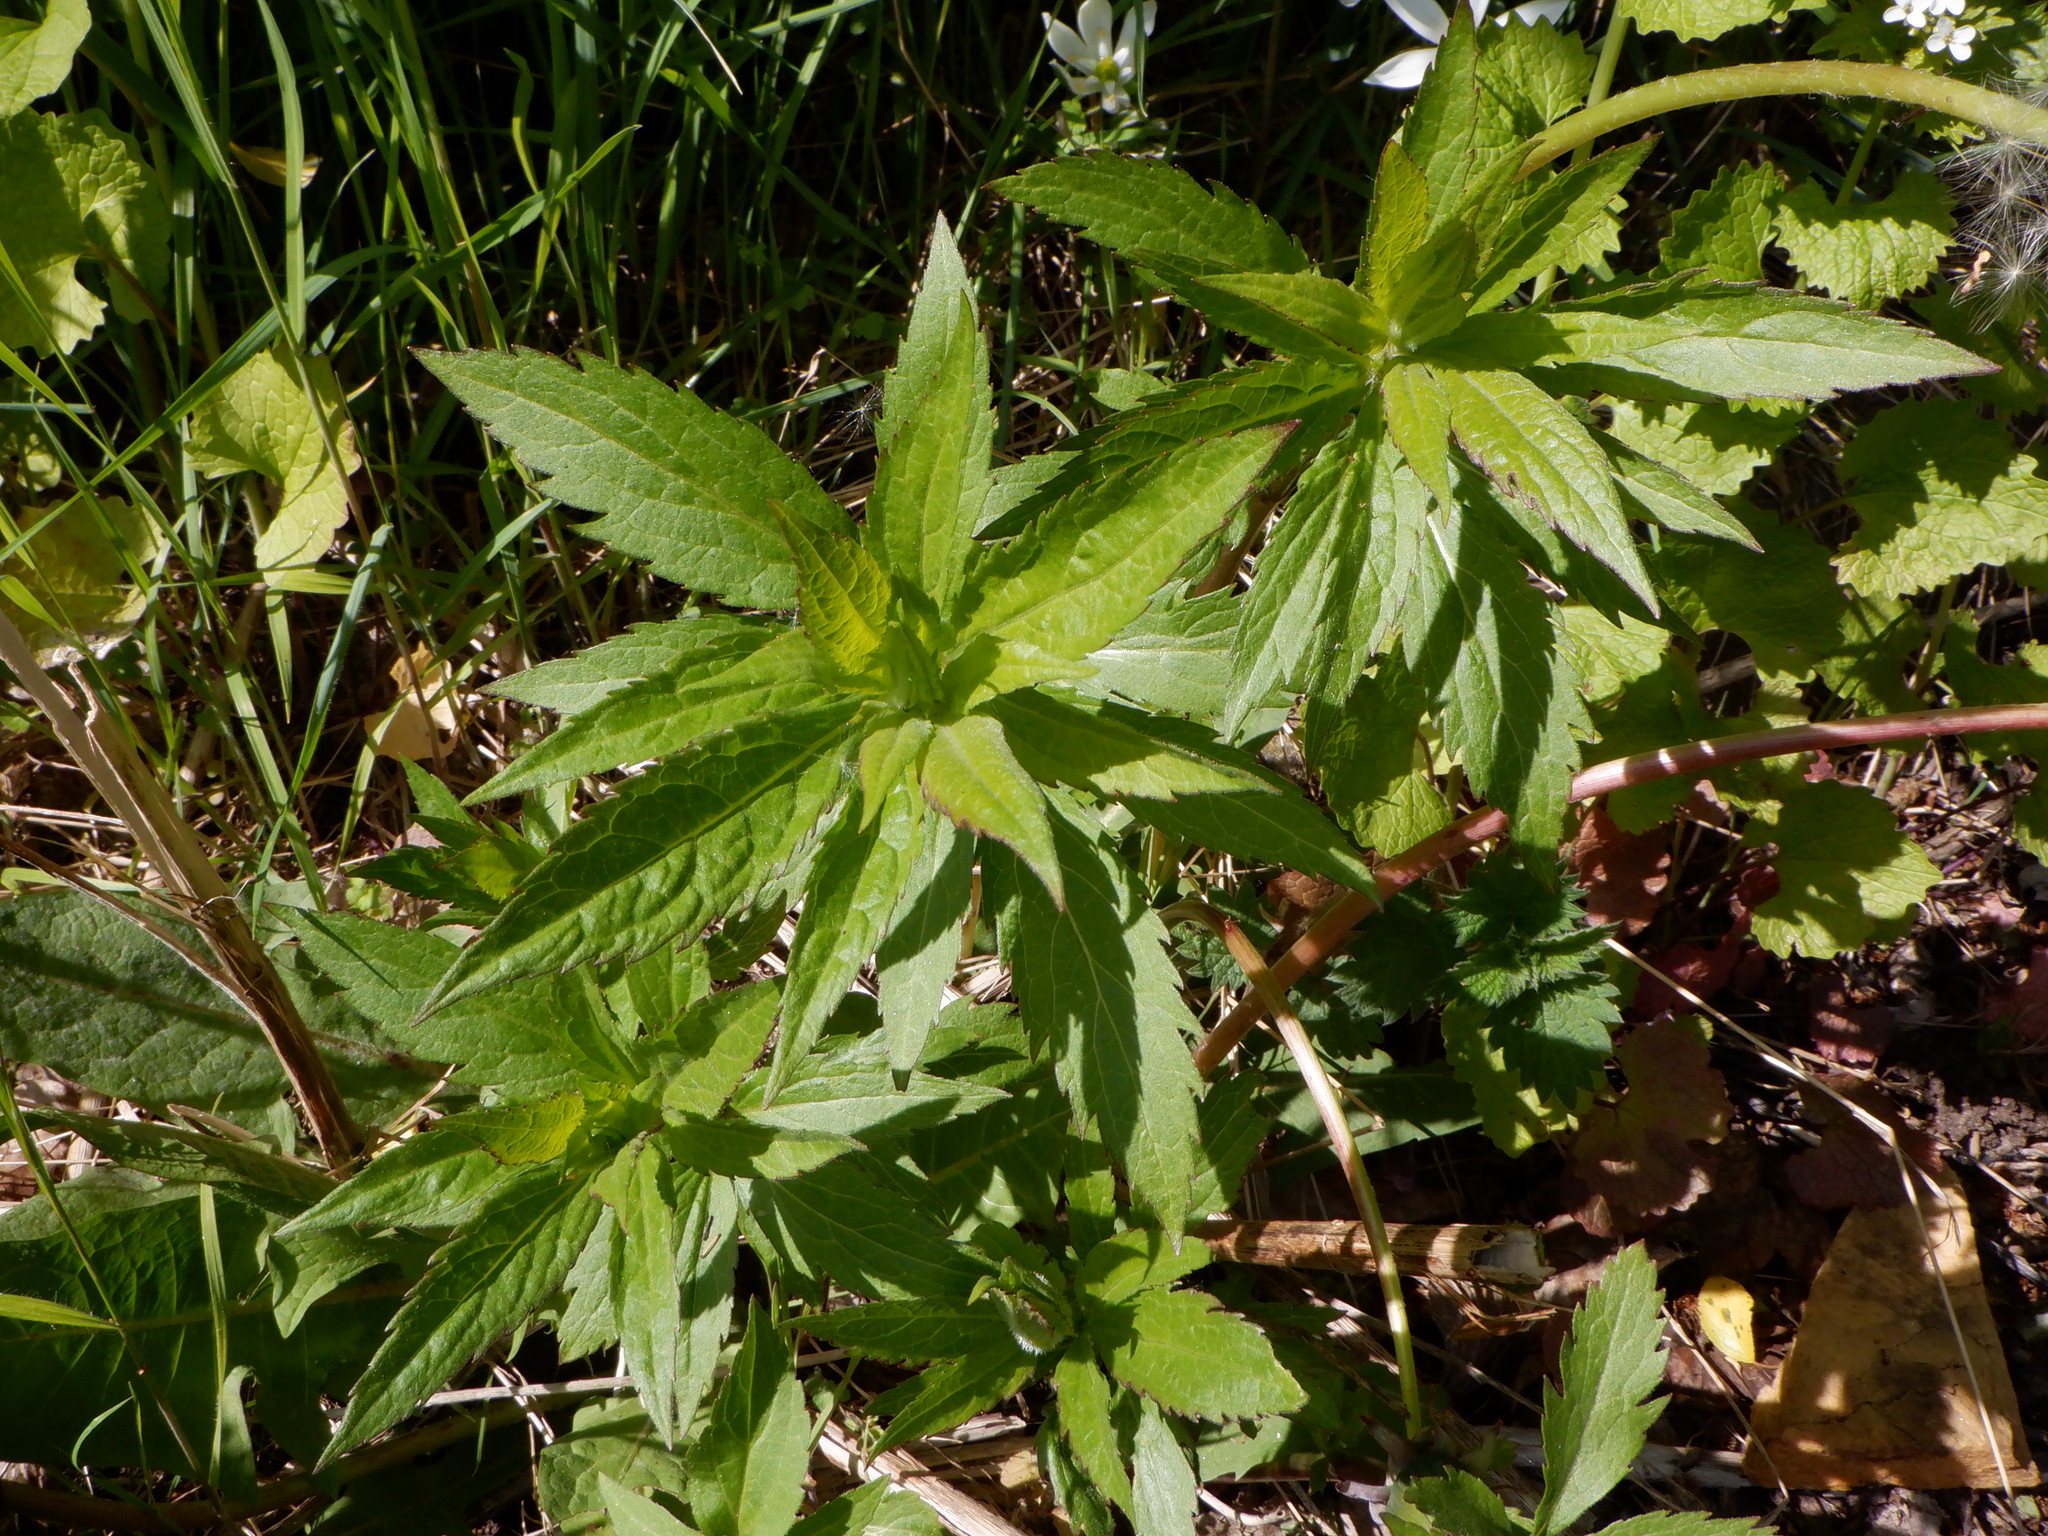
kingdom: Plantae
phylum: Tracheophyta
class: Magnoliopsida
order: Asterales
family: Asteraceae
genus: Eupatorium
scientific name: Eupatorium cannabinum
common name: Hemp-agrimony
